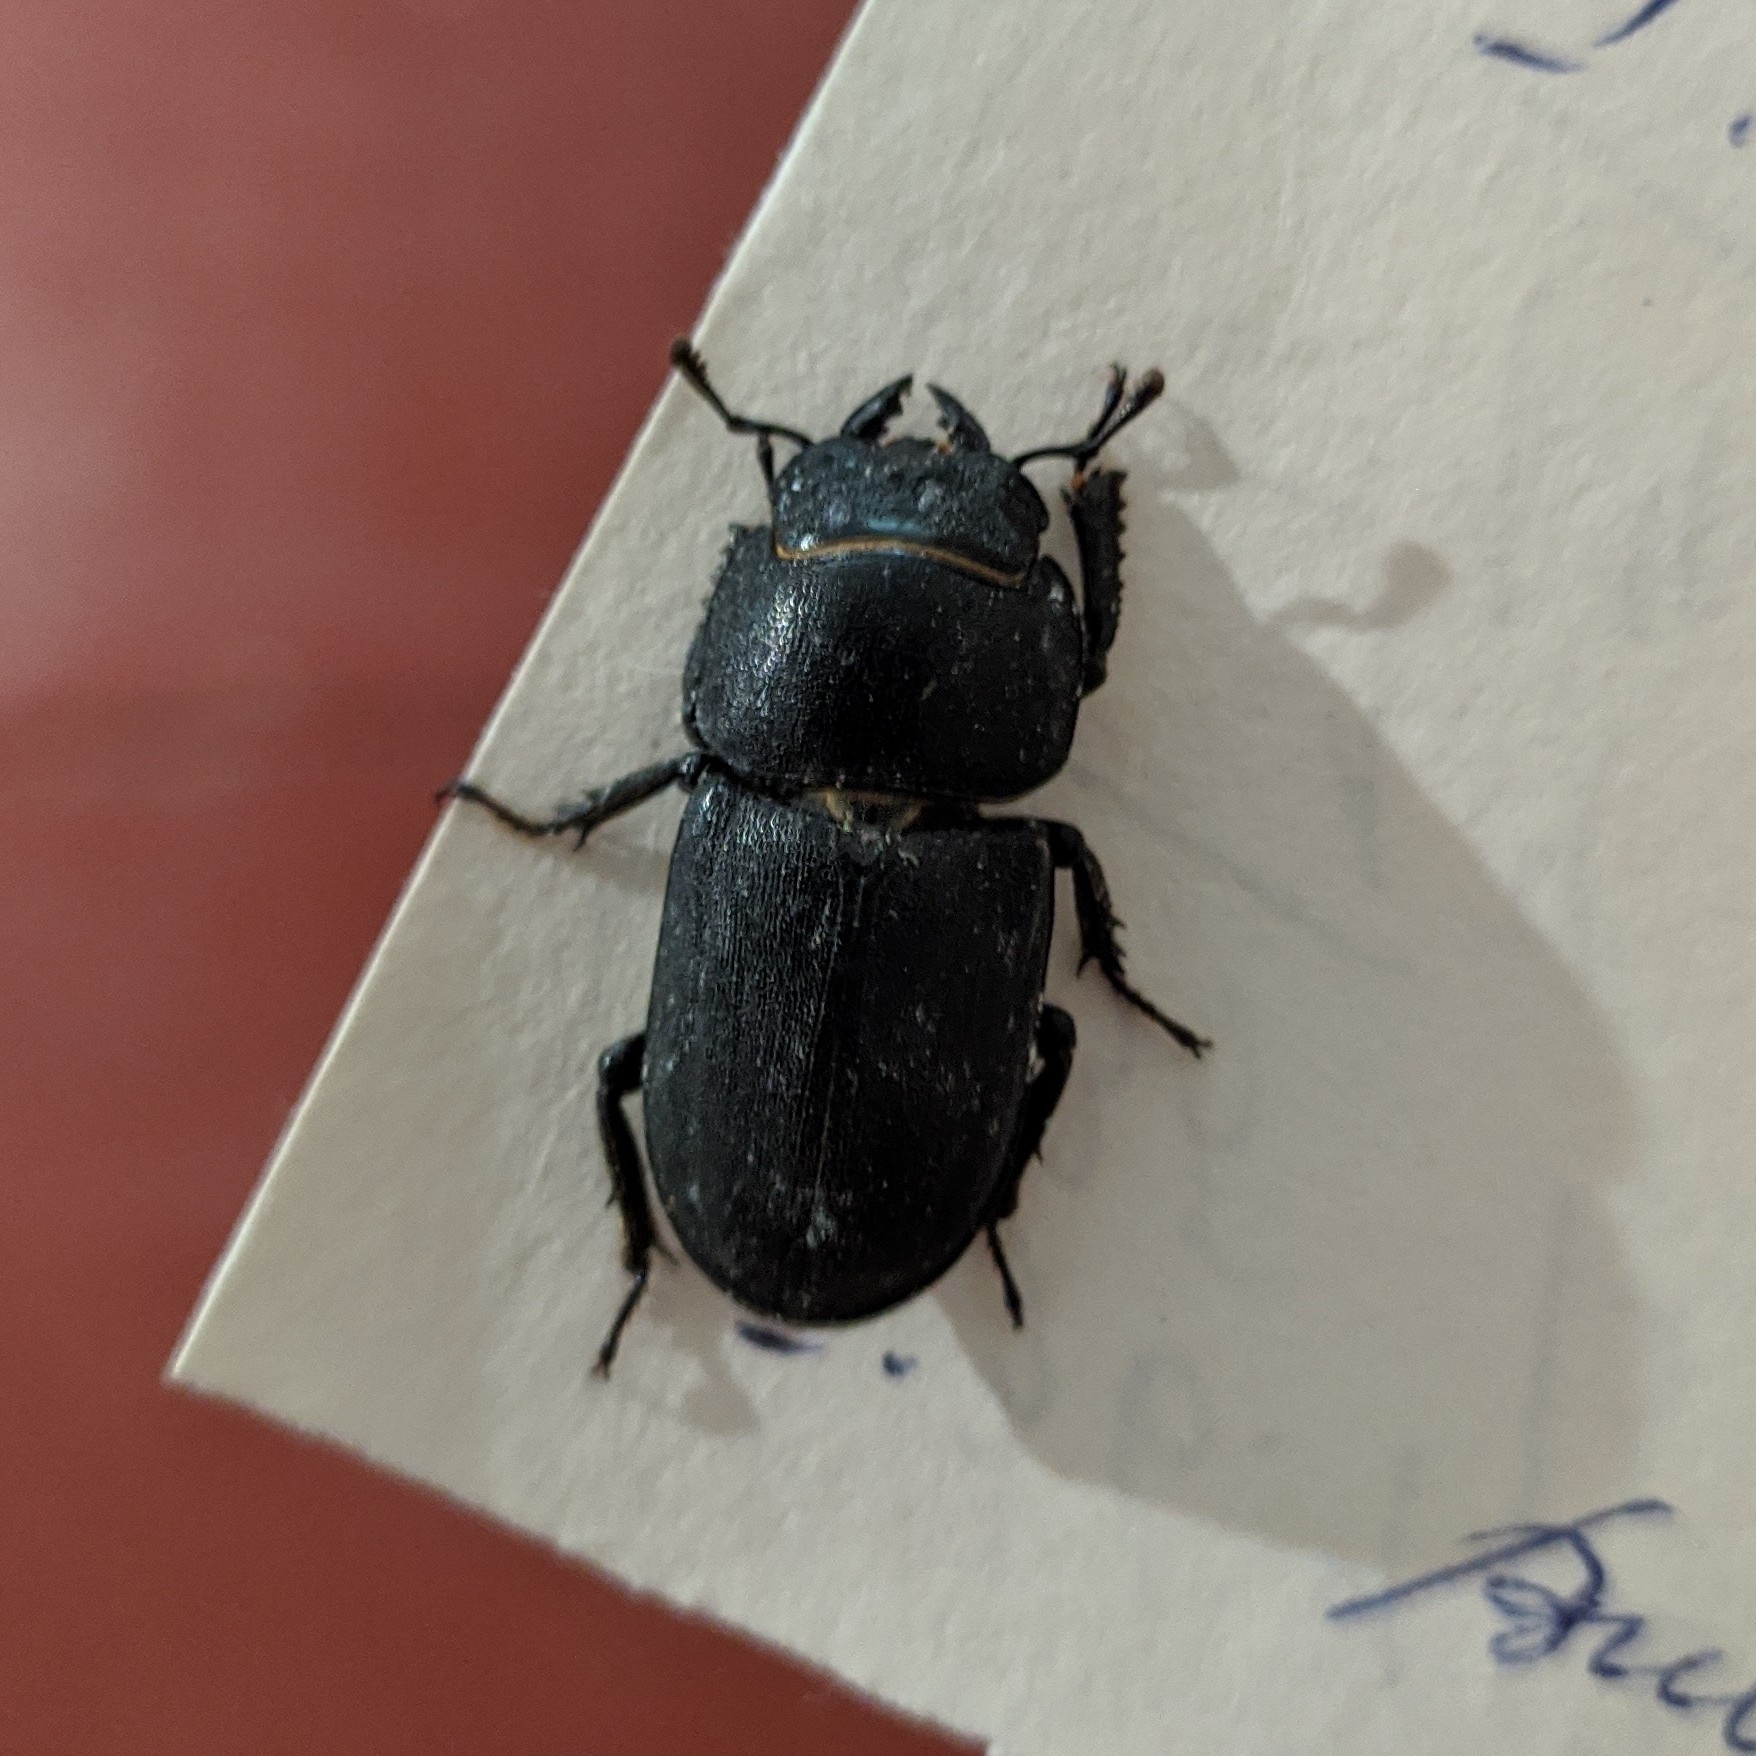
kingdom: Animalia
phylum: Arthropoda
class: Insecta
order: Coleoptera
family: Lucanidae
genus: Dorcus
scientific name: Dorcus parallelipipedus
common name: Lesser stag beetle
